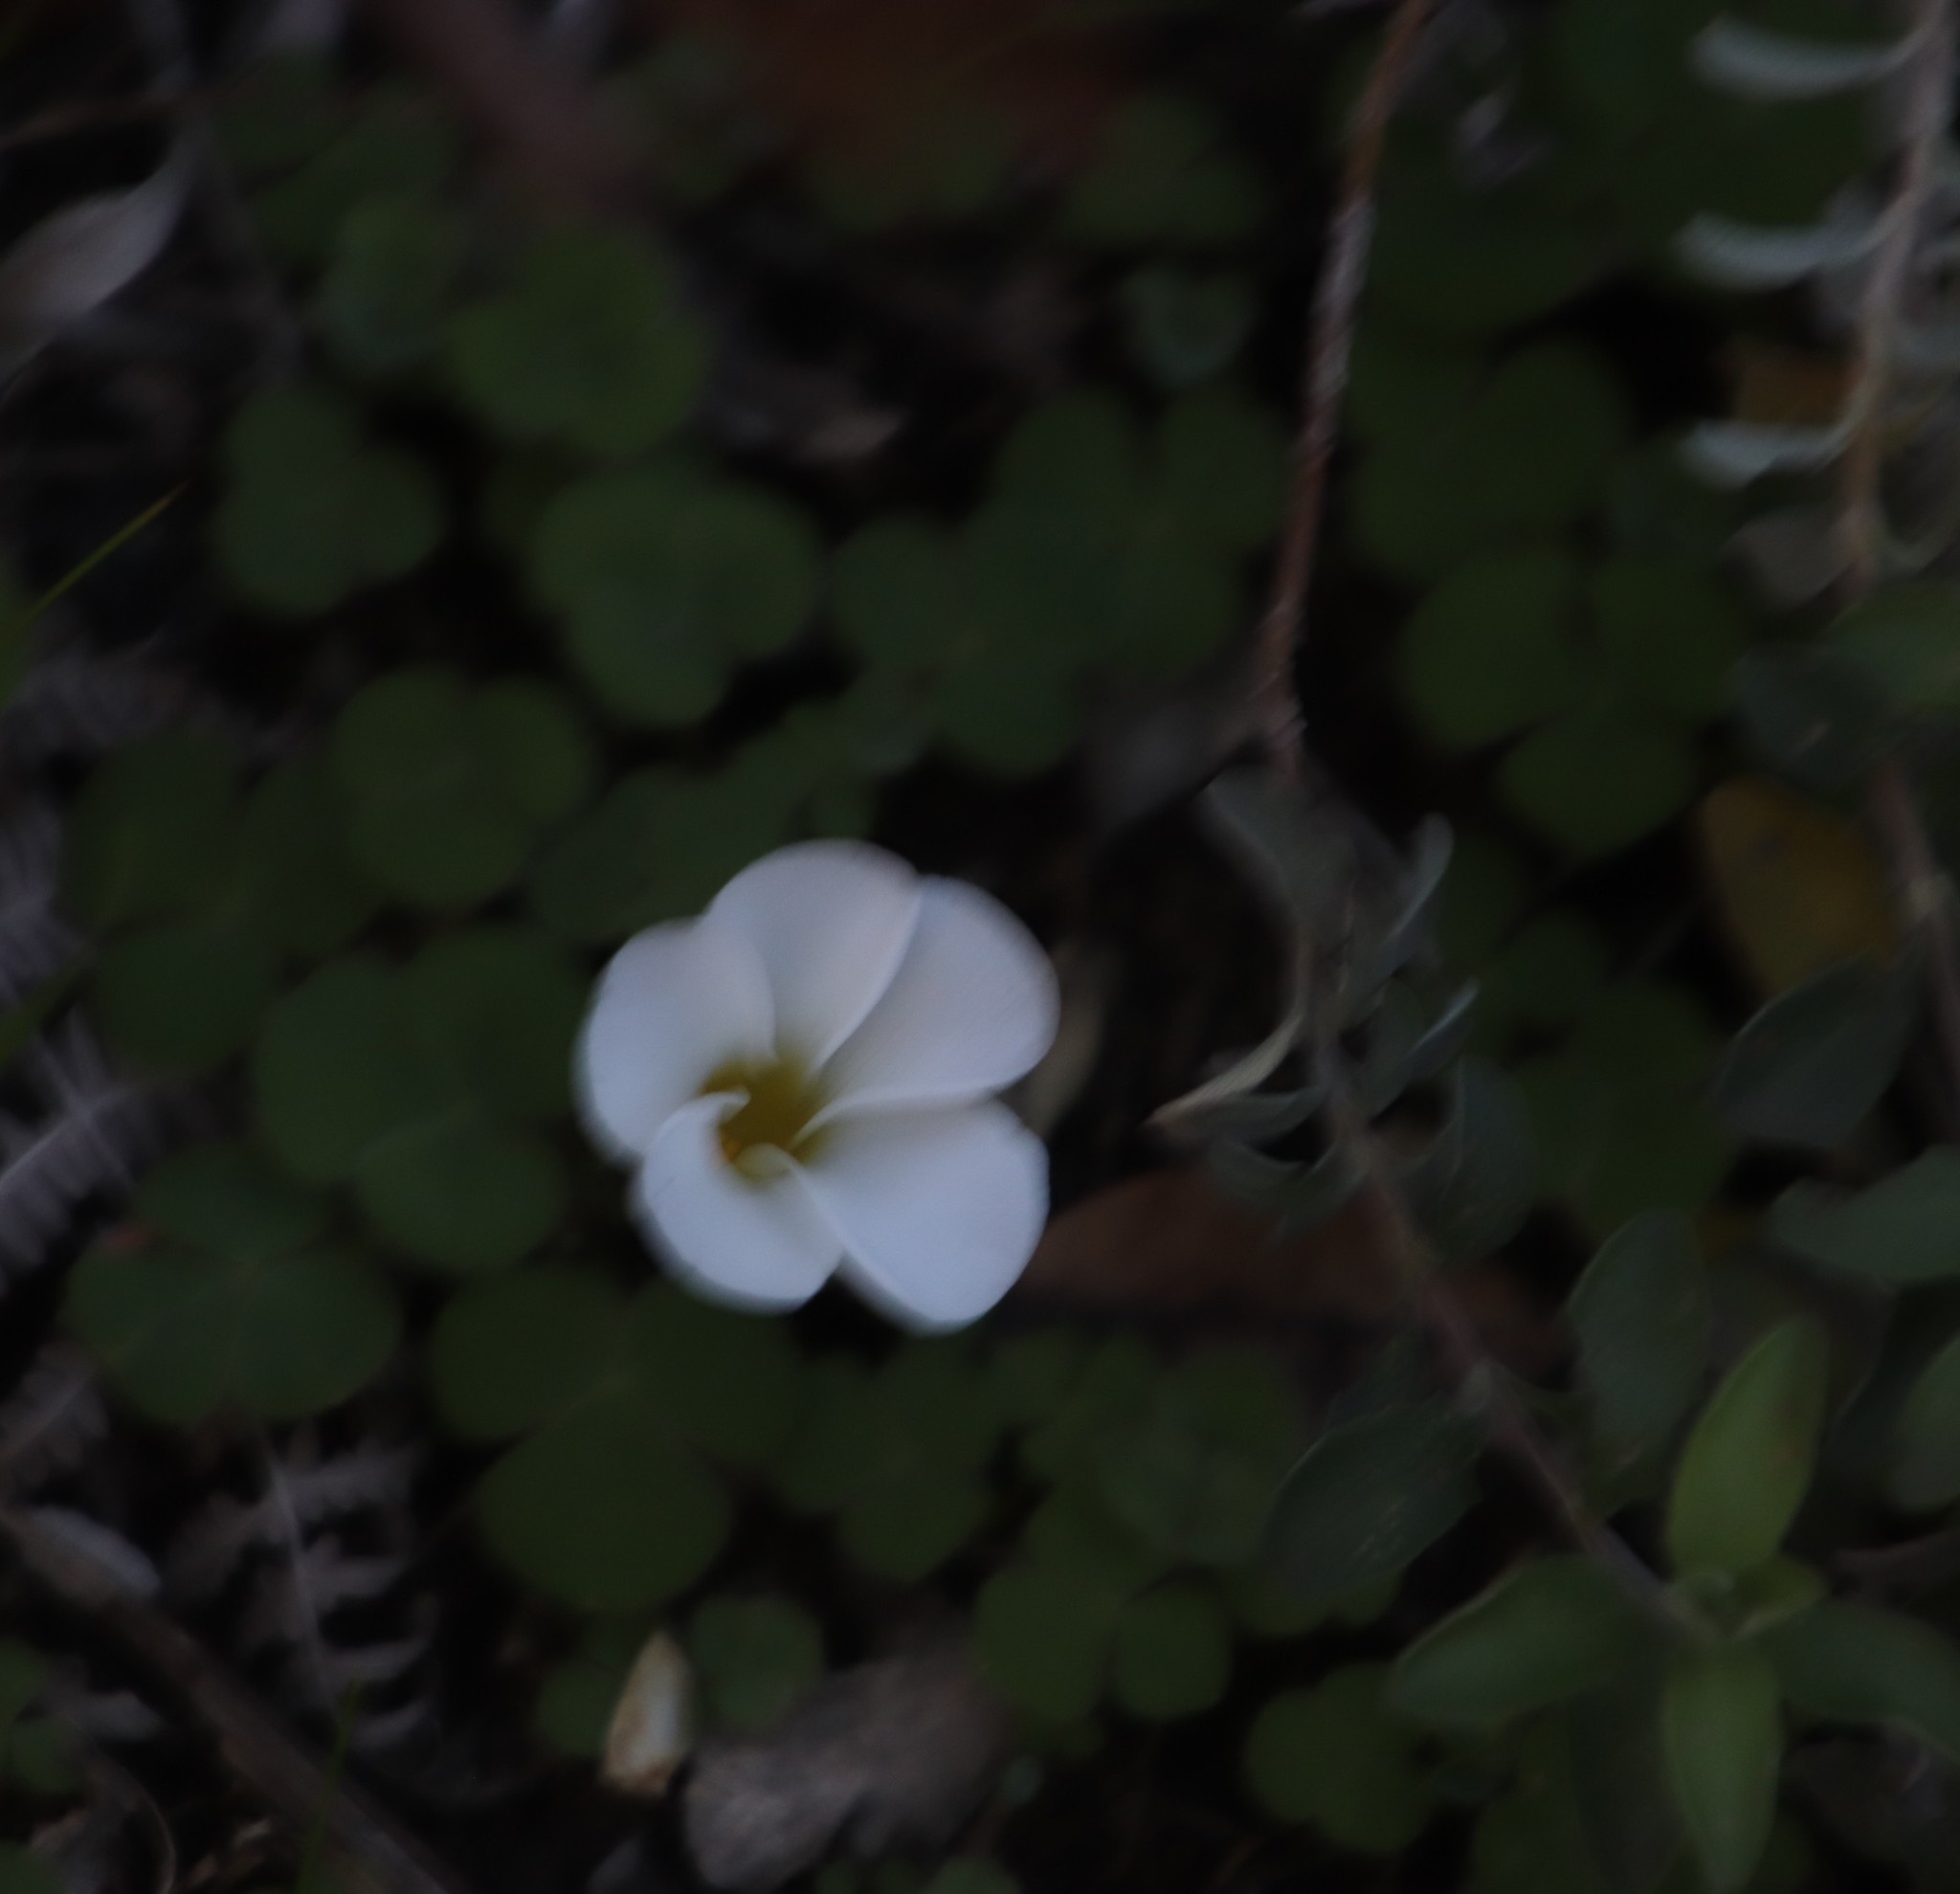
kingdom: Plantae
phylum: Tracheophyta
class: Magnoliopsida
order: Oxalidales
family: Oxalidaceae
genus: Oxalis
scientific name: Oxalis purpurea
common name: Purple woodsorrel
